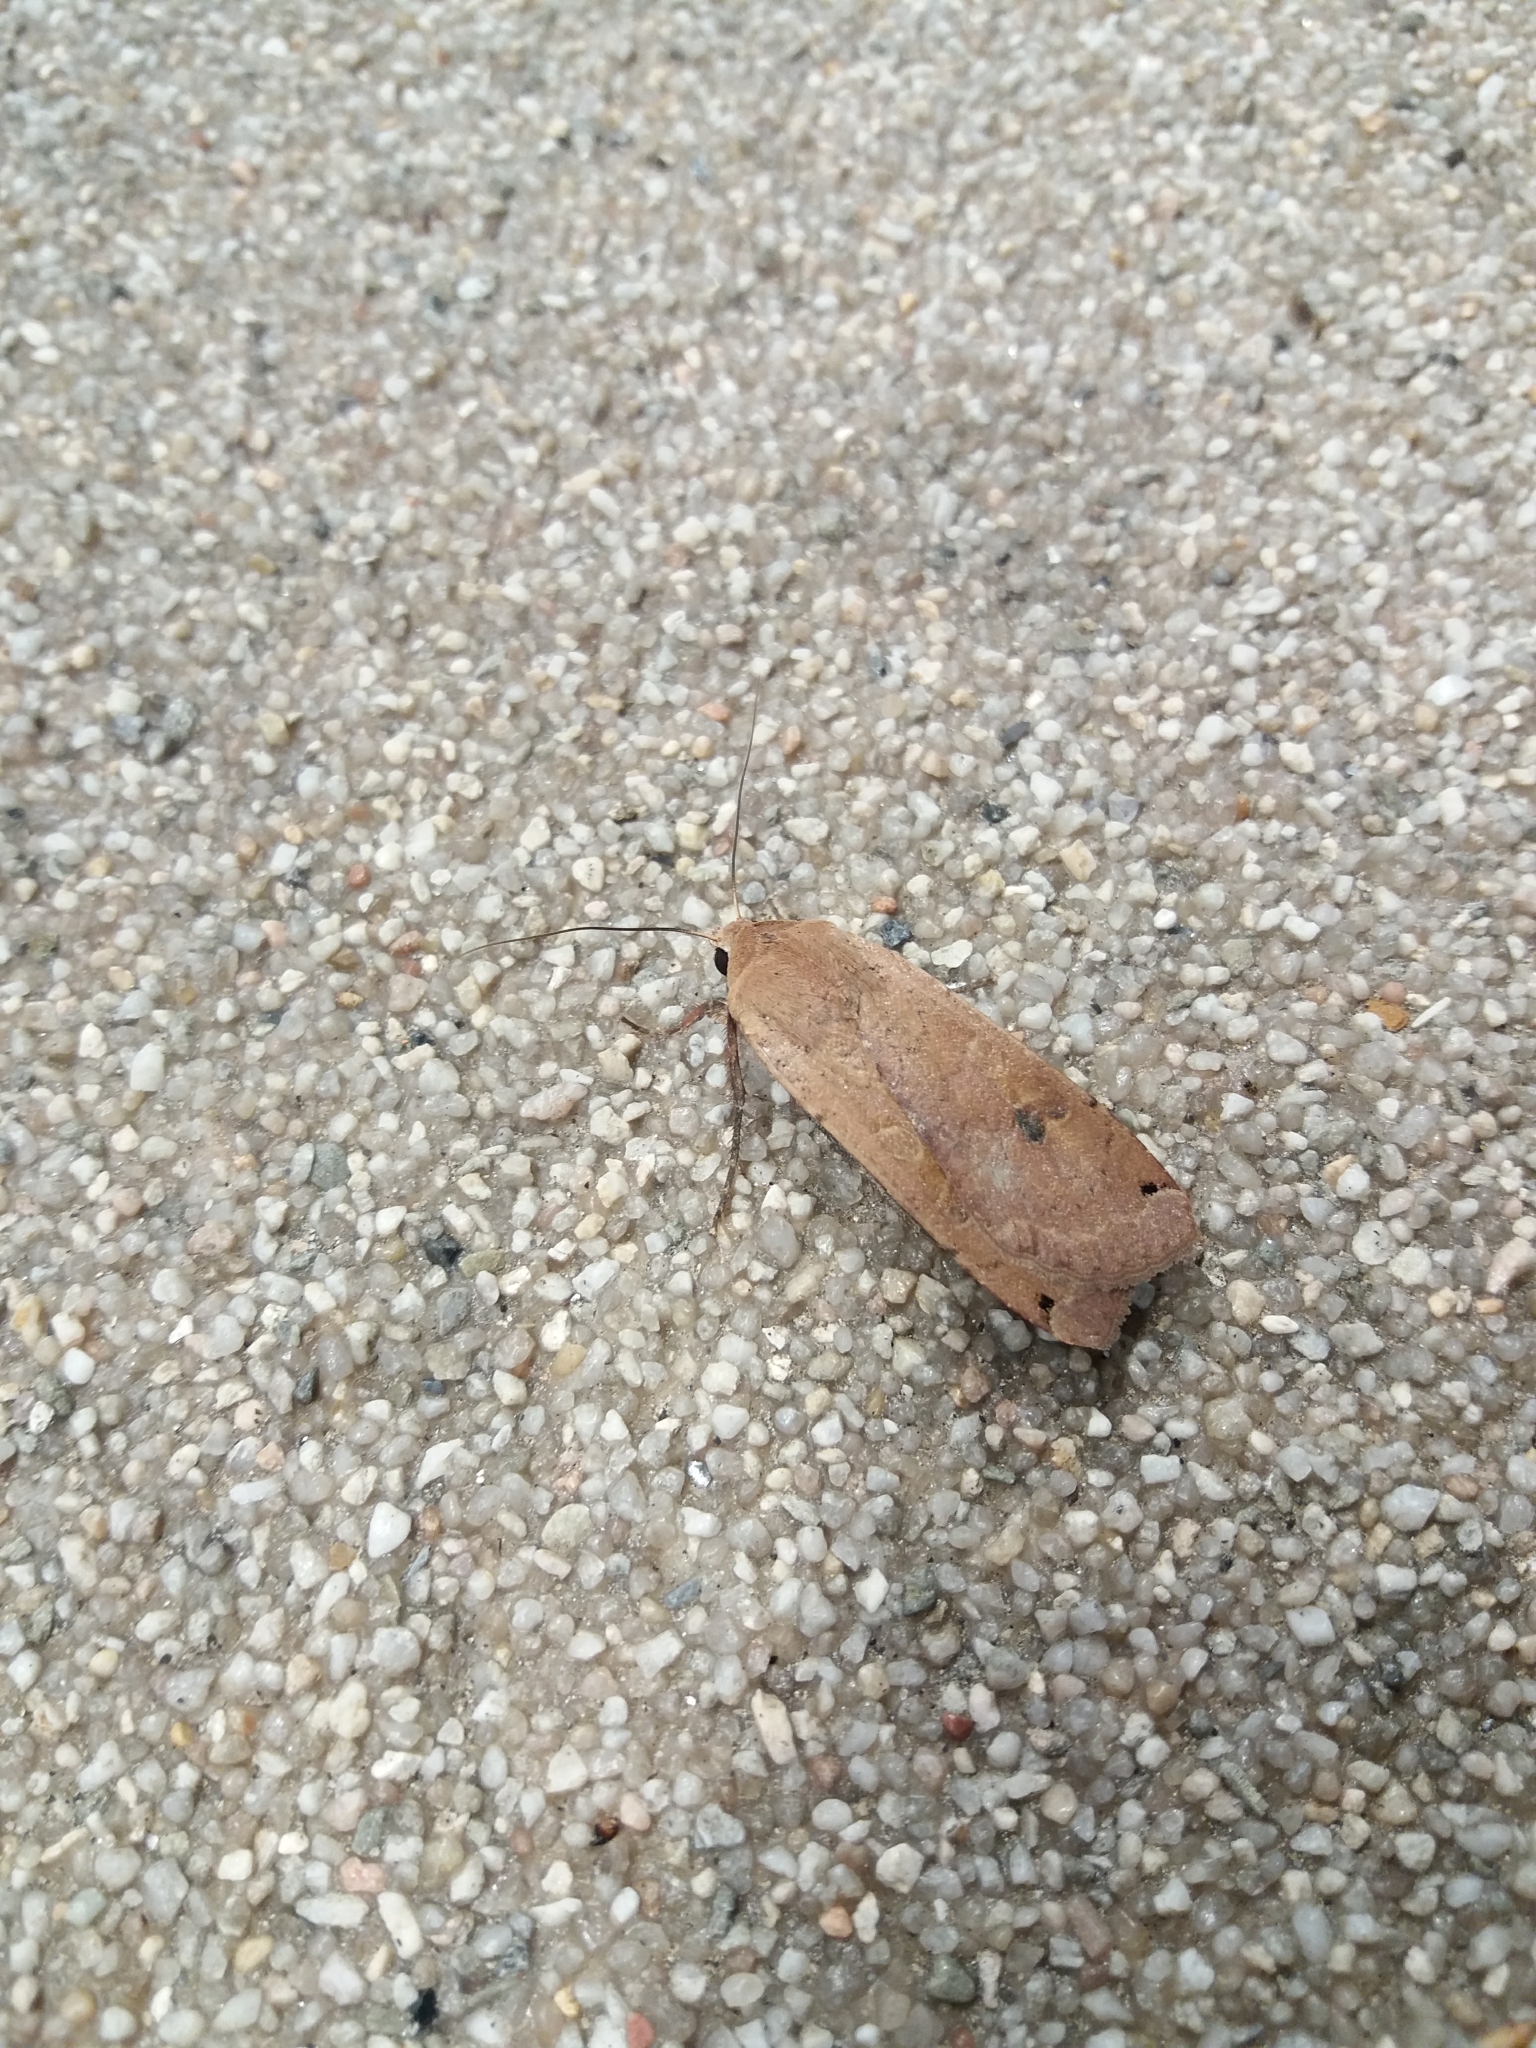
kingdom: Animalia
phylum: Arthropoda
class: Insecta
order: Lepidoptera
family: Noctuidae
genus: Noctua
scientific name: Noctua pronuba
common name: Large yellow underwing
